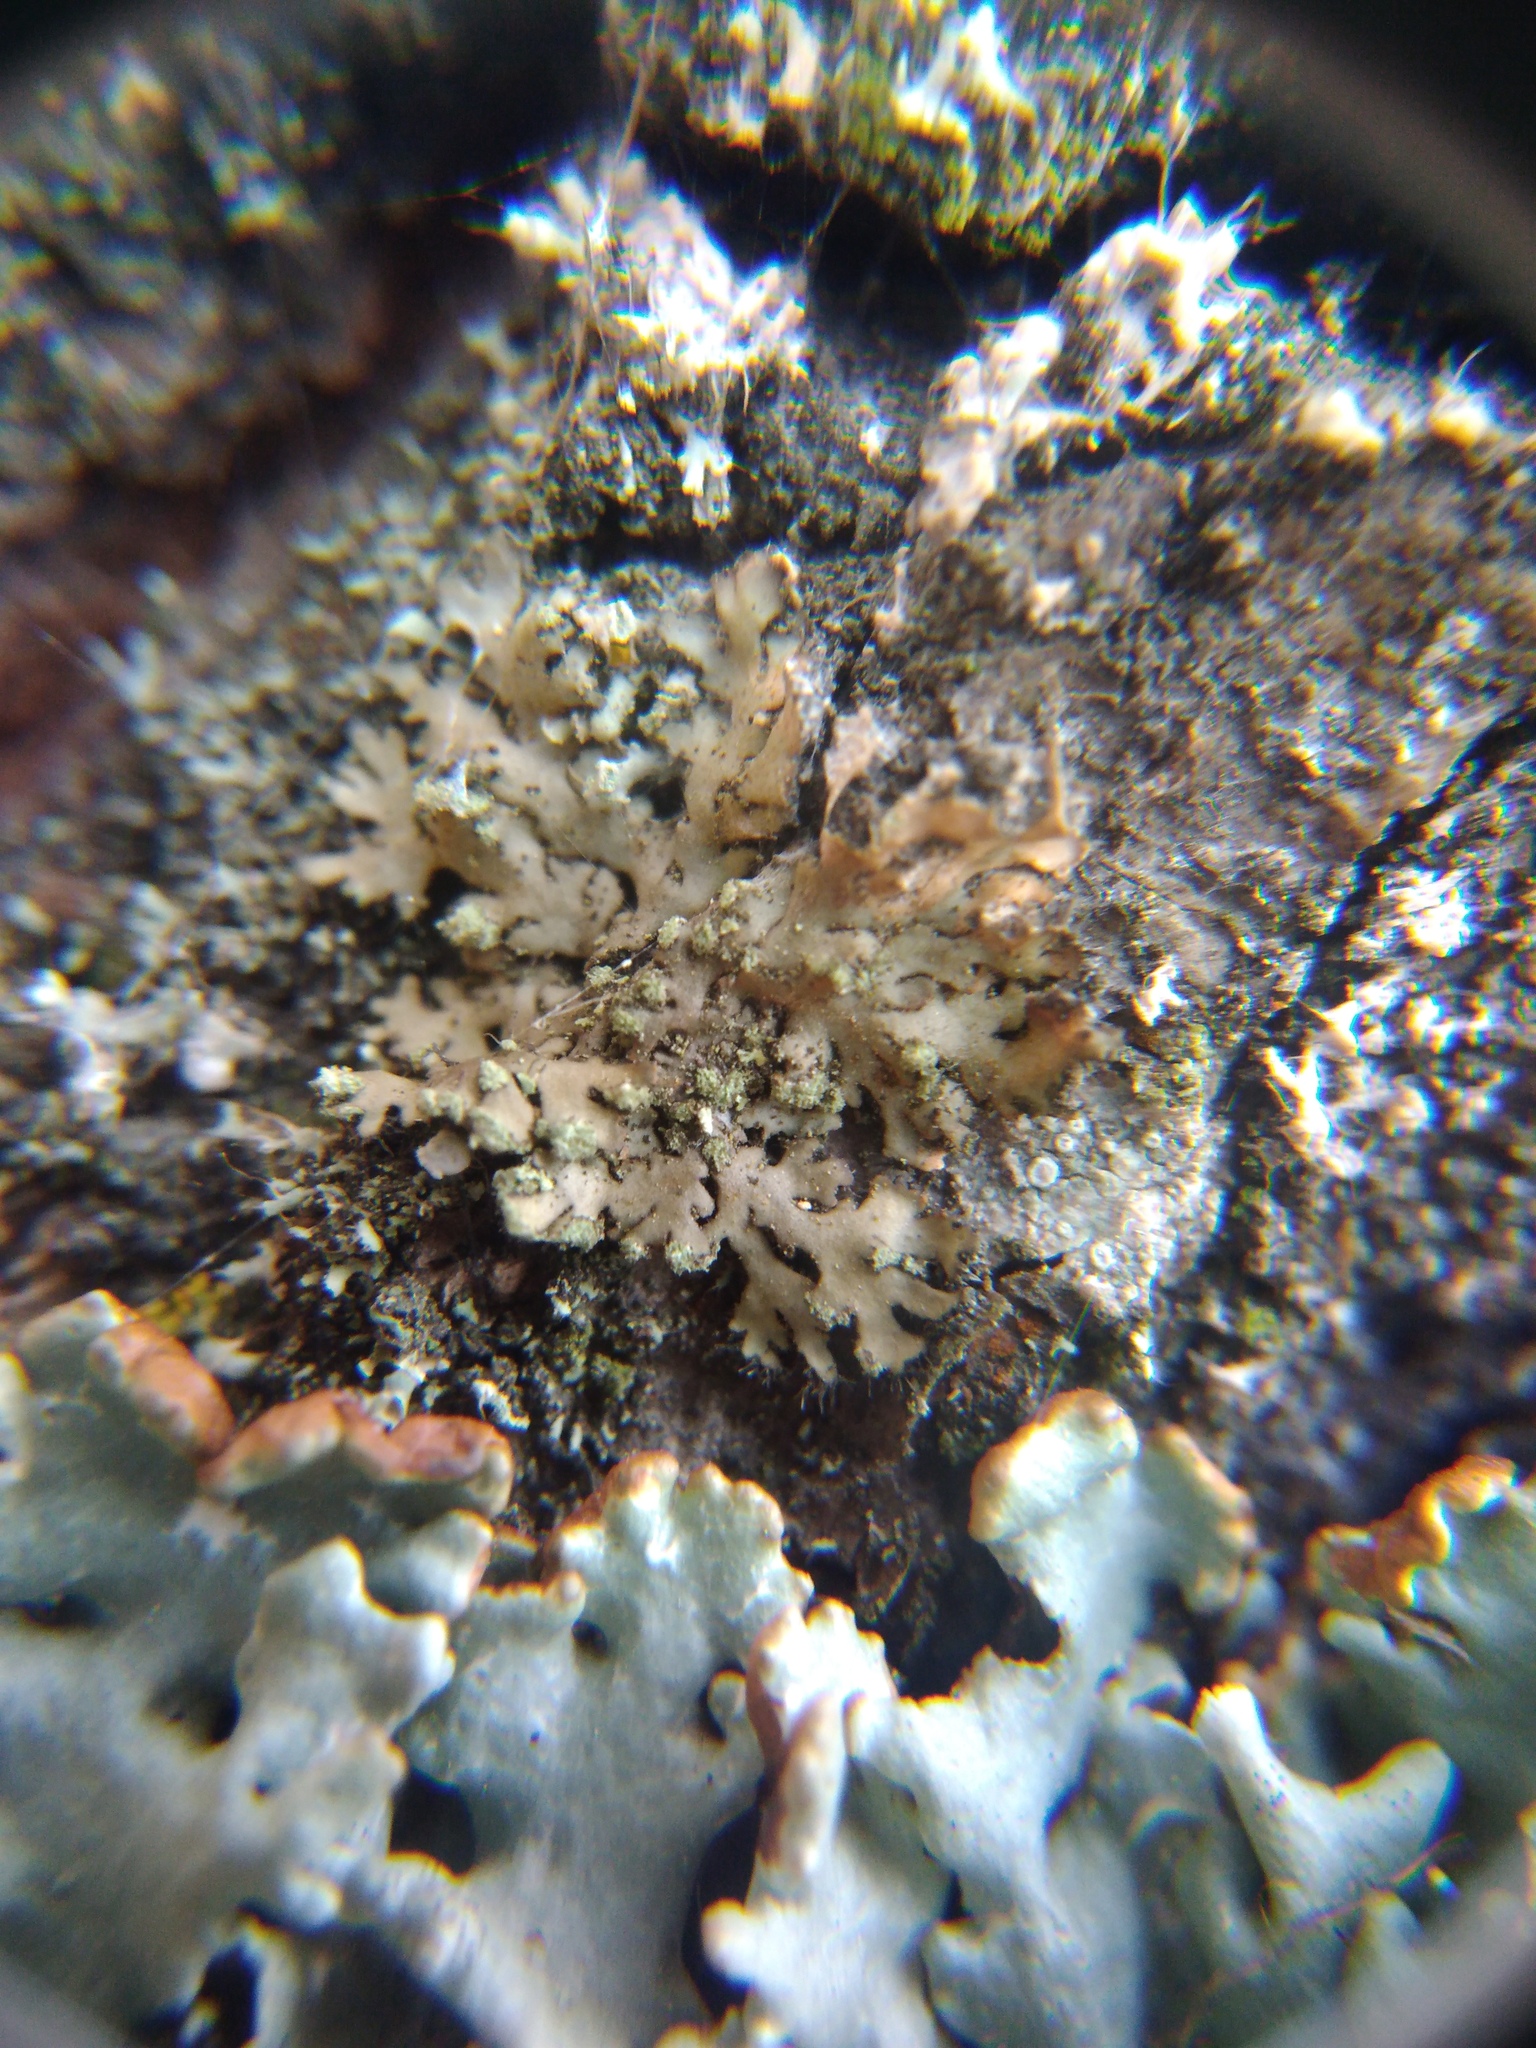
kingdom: Fungi
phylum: Ascomycota
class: Lecanoromycetes
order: Caliciales
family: Physciaceae
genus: Phaeophyscia
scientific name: Phaeophyscia orbicularis
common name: Mealy shadow lichen
